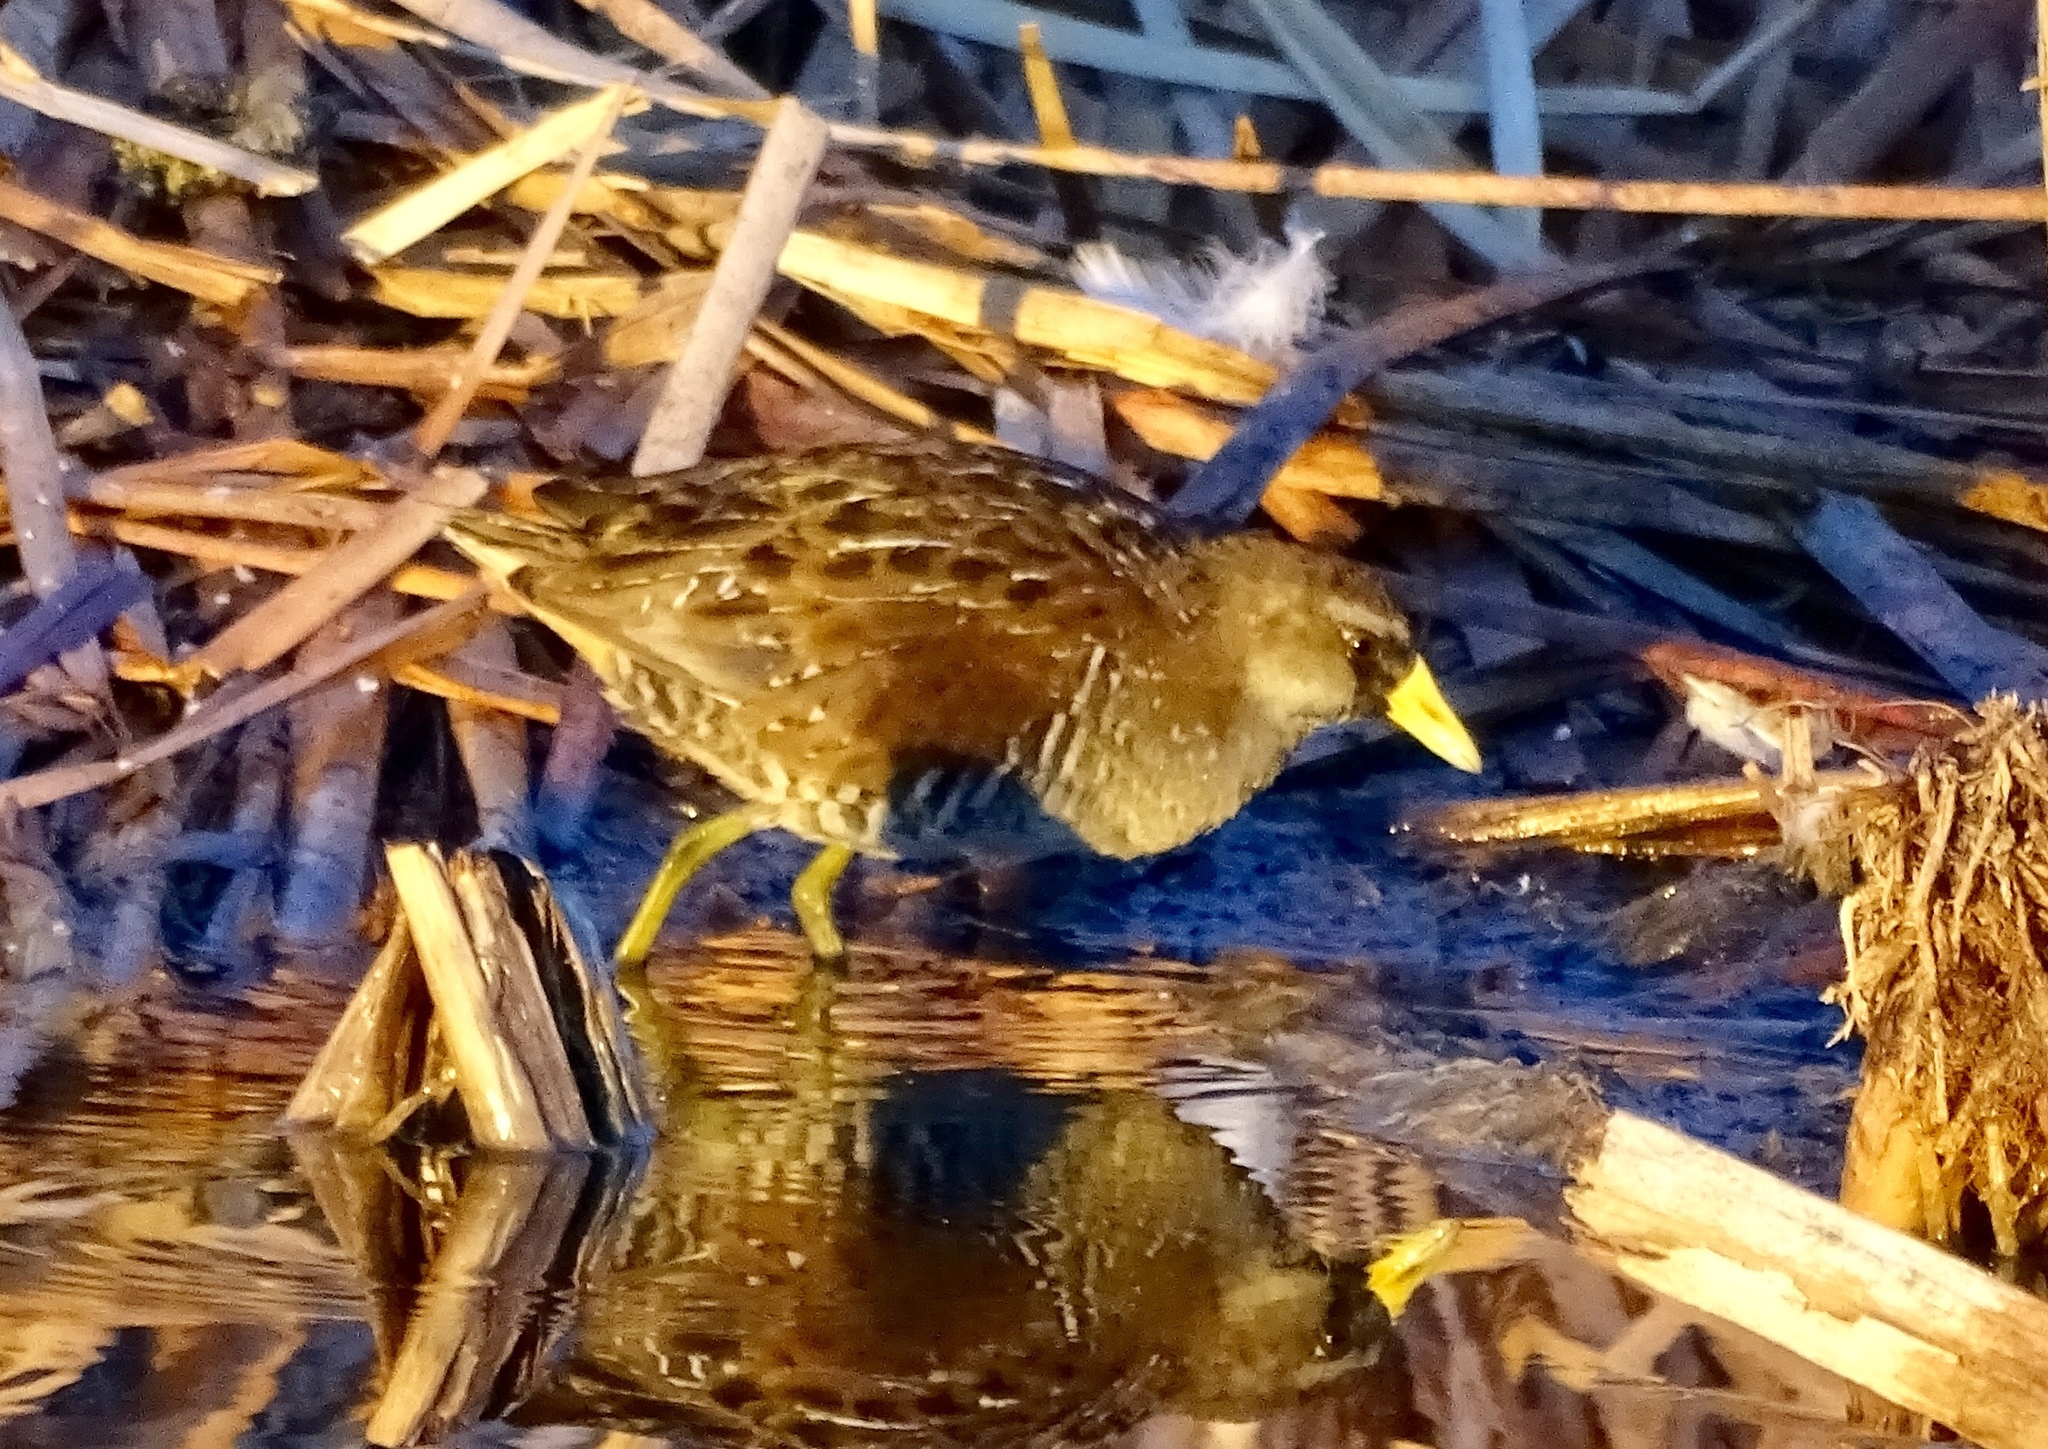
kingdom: Animalia
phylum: Chordata
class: Aves
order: Gruiformes
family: Rallidae
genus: Porzana
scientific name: Porzana carolina
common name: Sora
